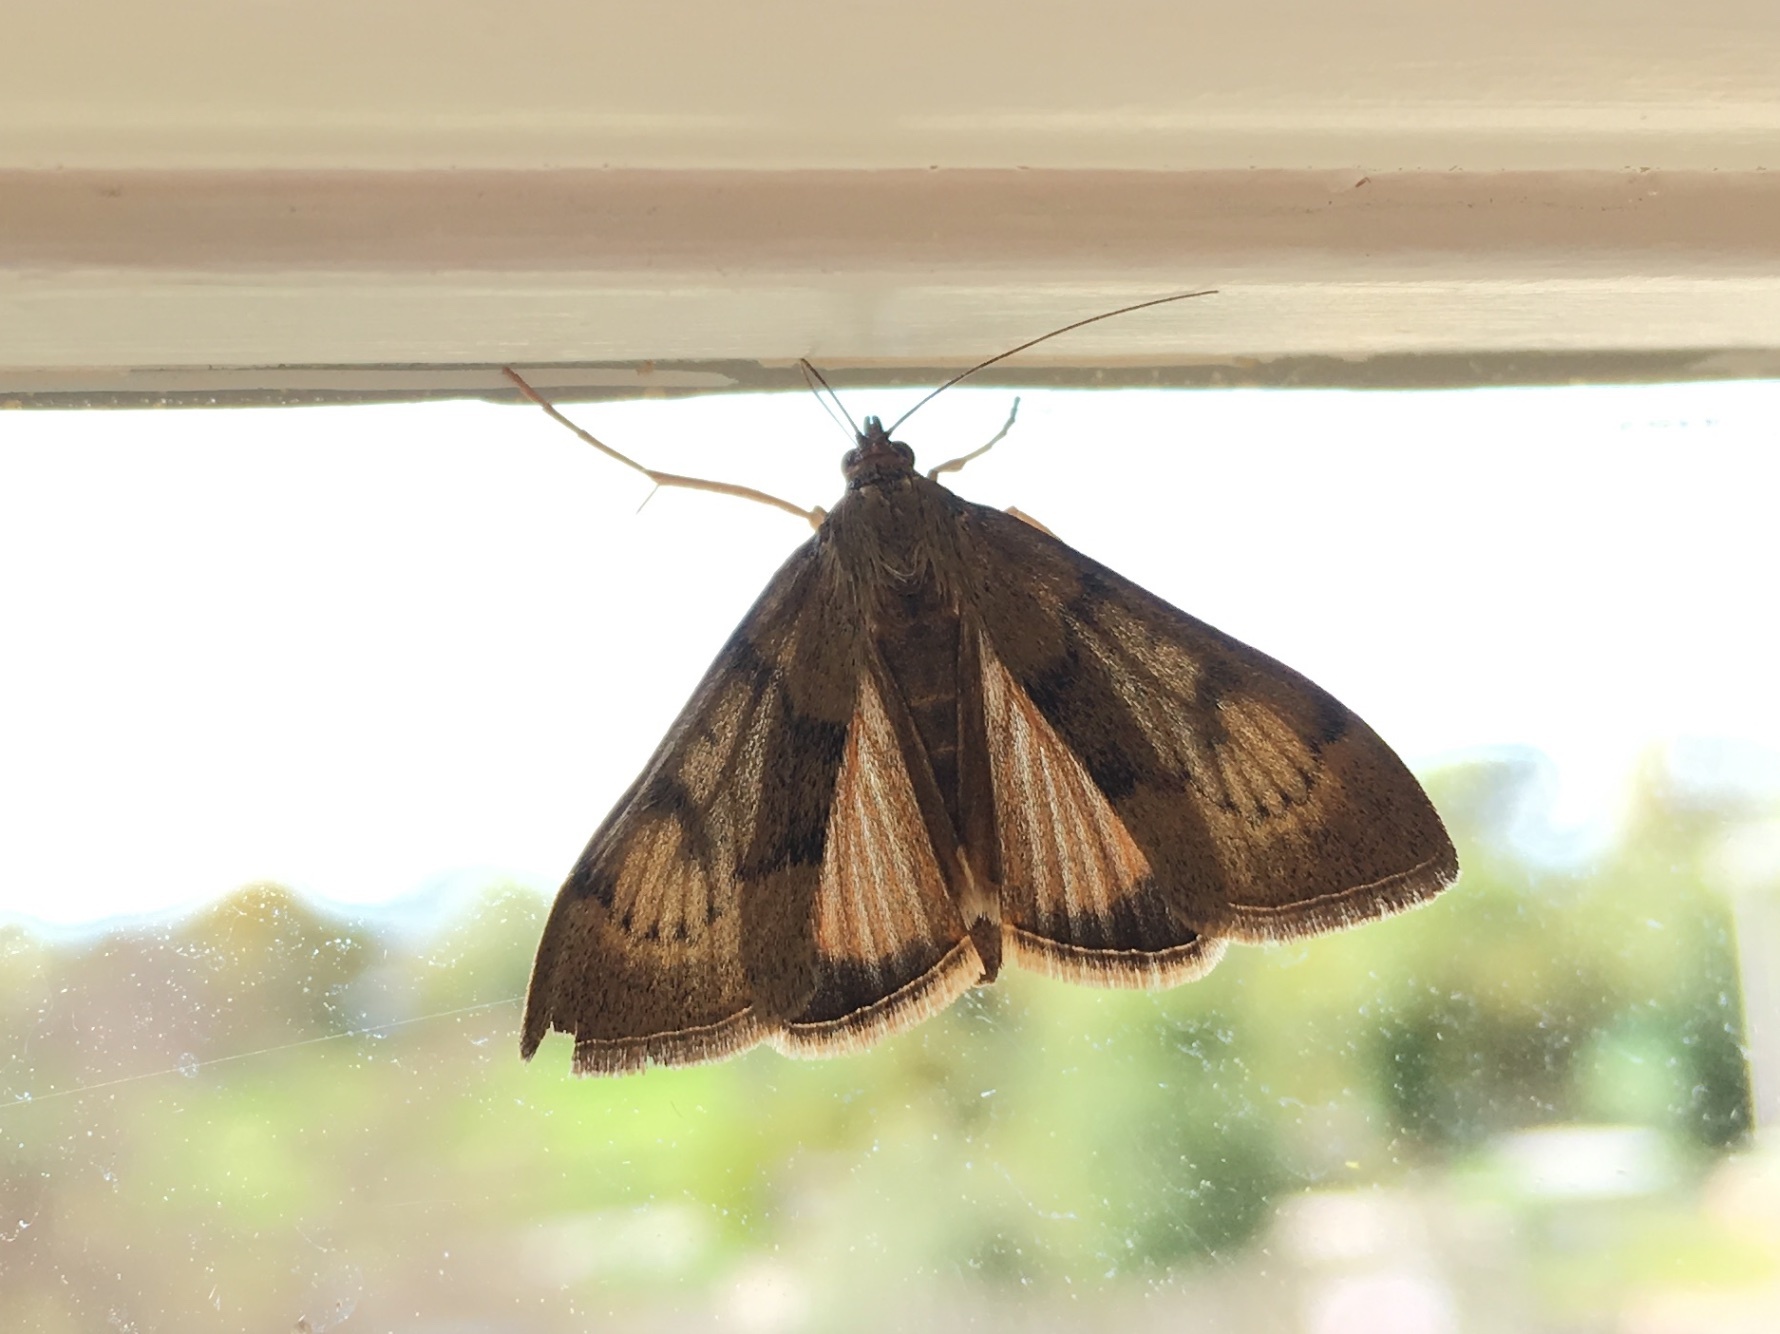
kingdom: Animalia
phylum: Arthropoda
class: Insecta
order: Lepidoptera
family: Crambidae
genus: Uresiphita
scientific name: Uresiphita
